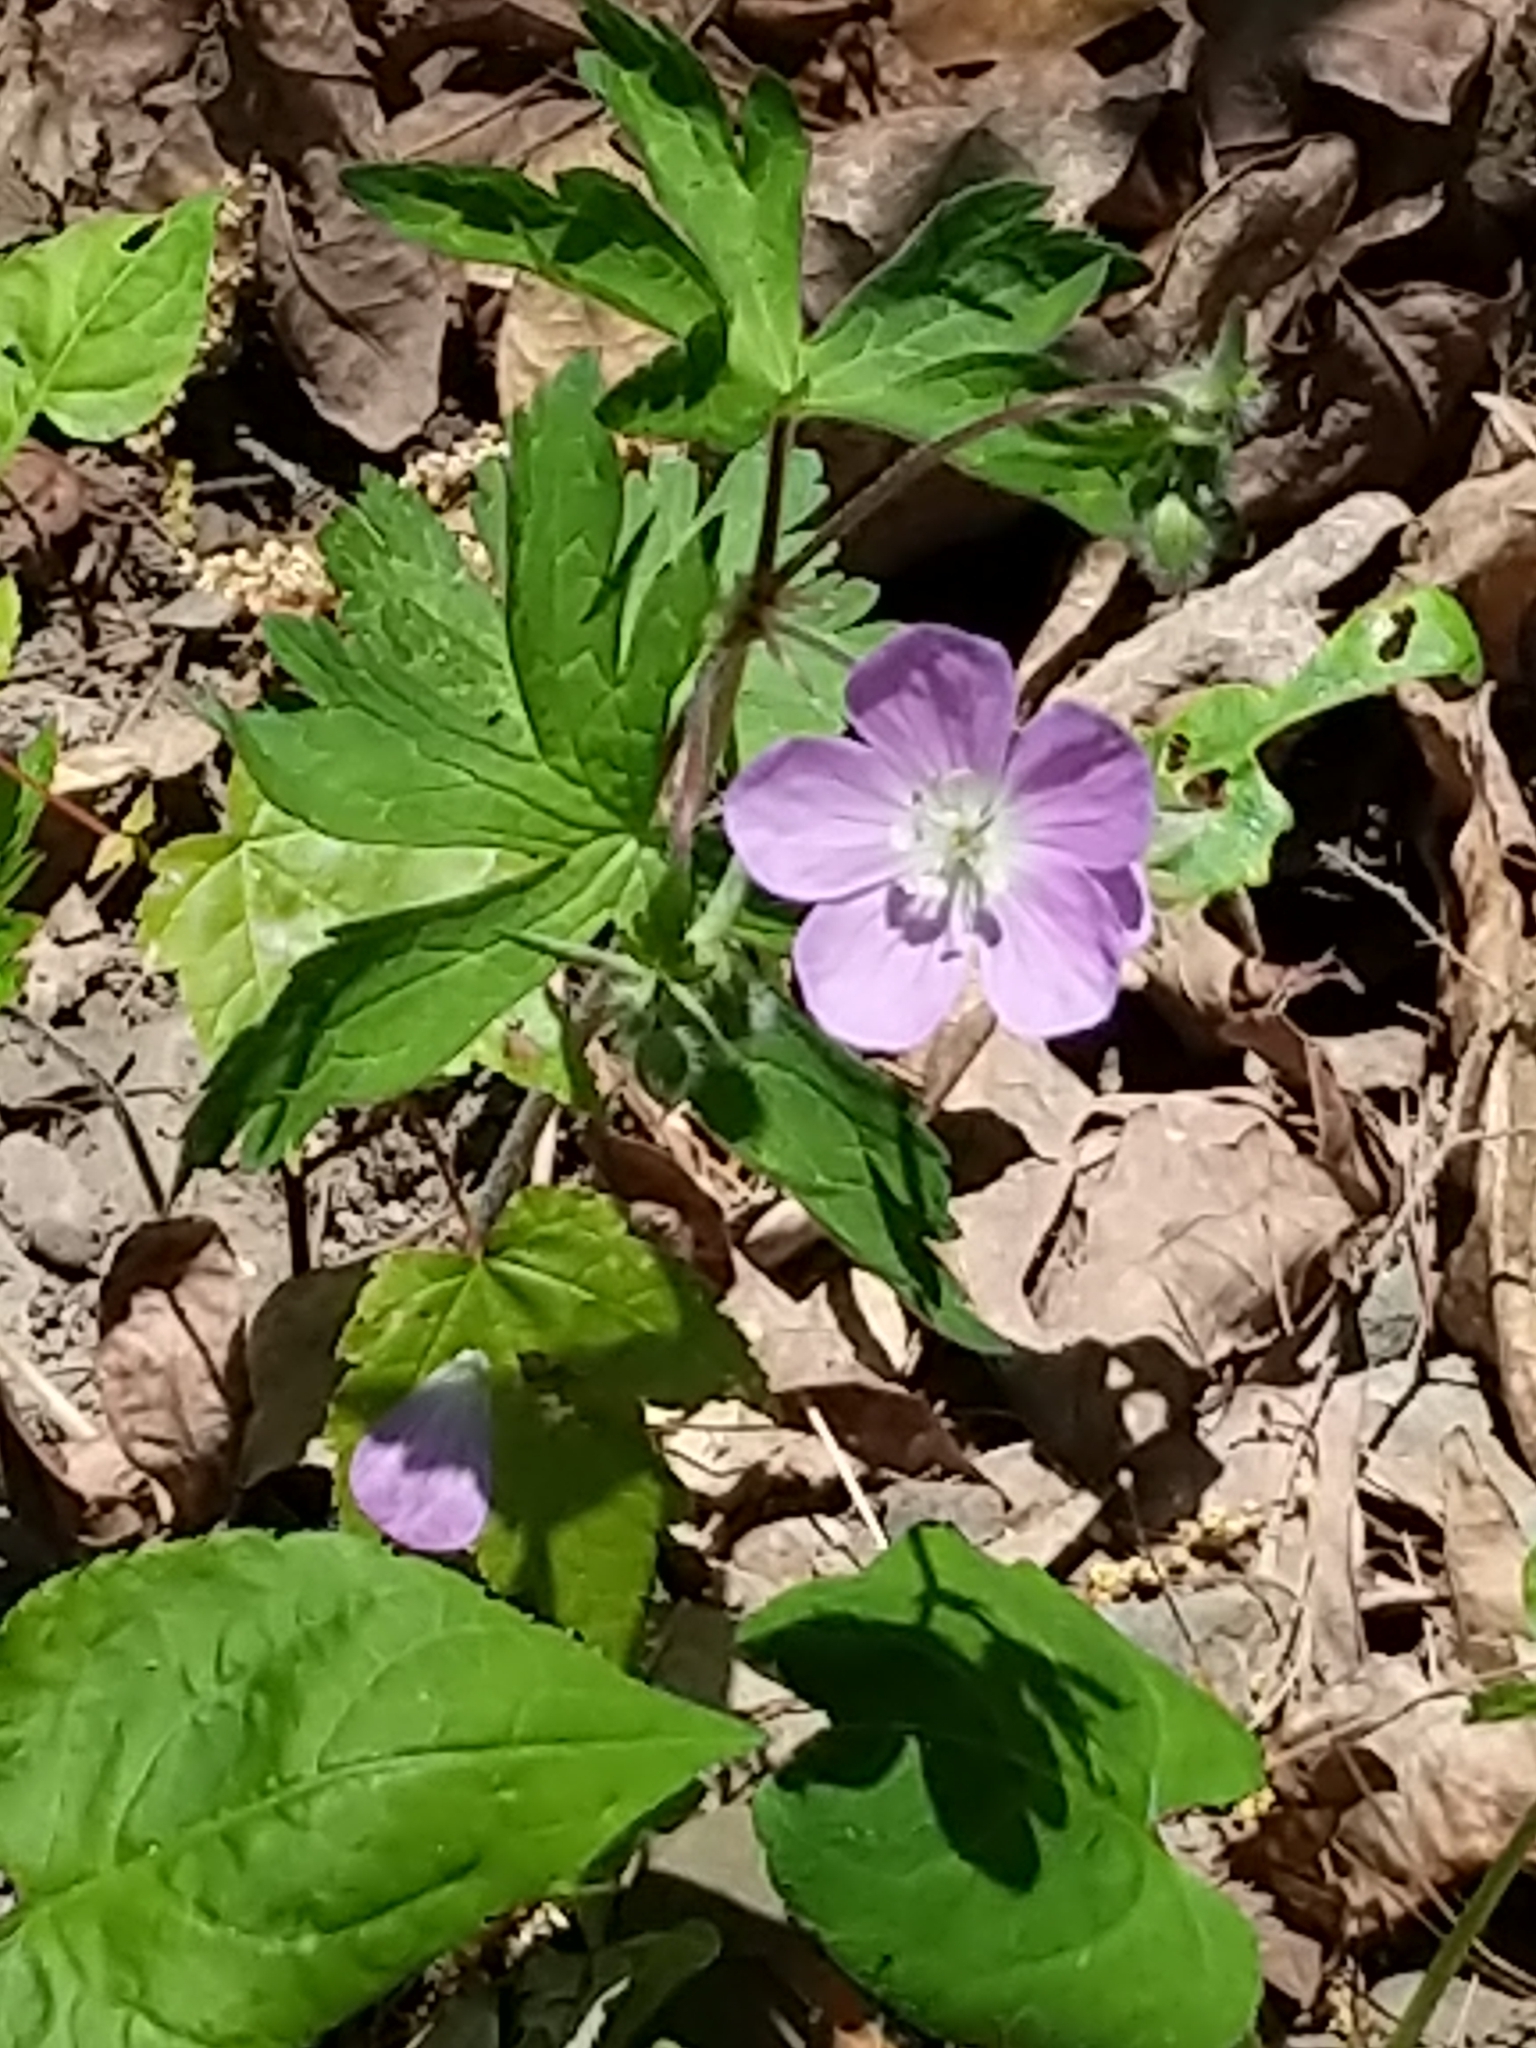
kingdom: Plantae
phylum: Tracheophyta
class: Magnoliopsida
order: Geraniales
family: Geraniaceae
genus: Geranium
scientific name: Geranium maculatum
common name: Spotted geranium
